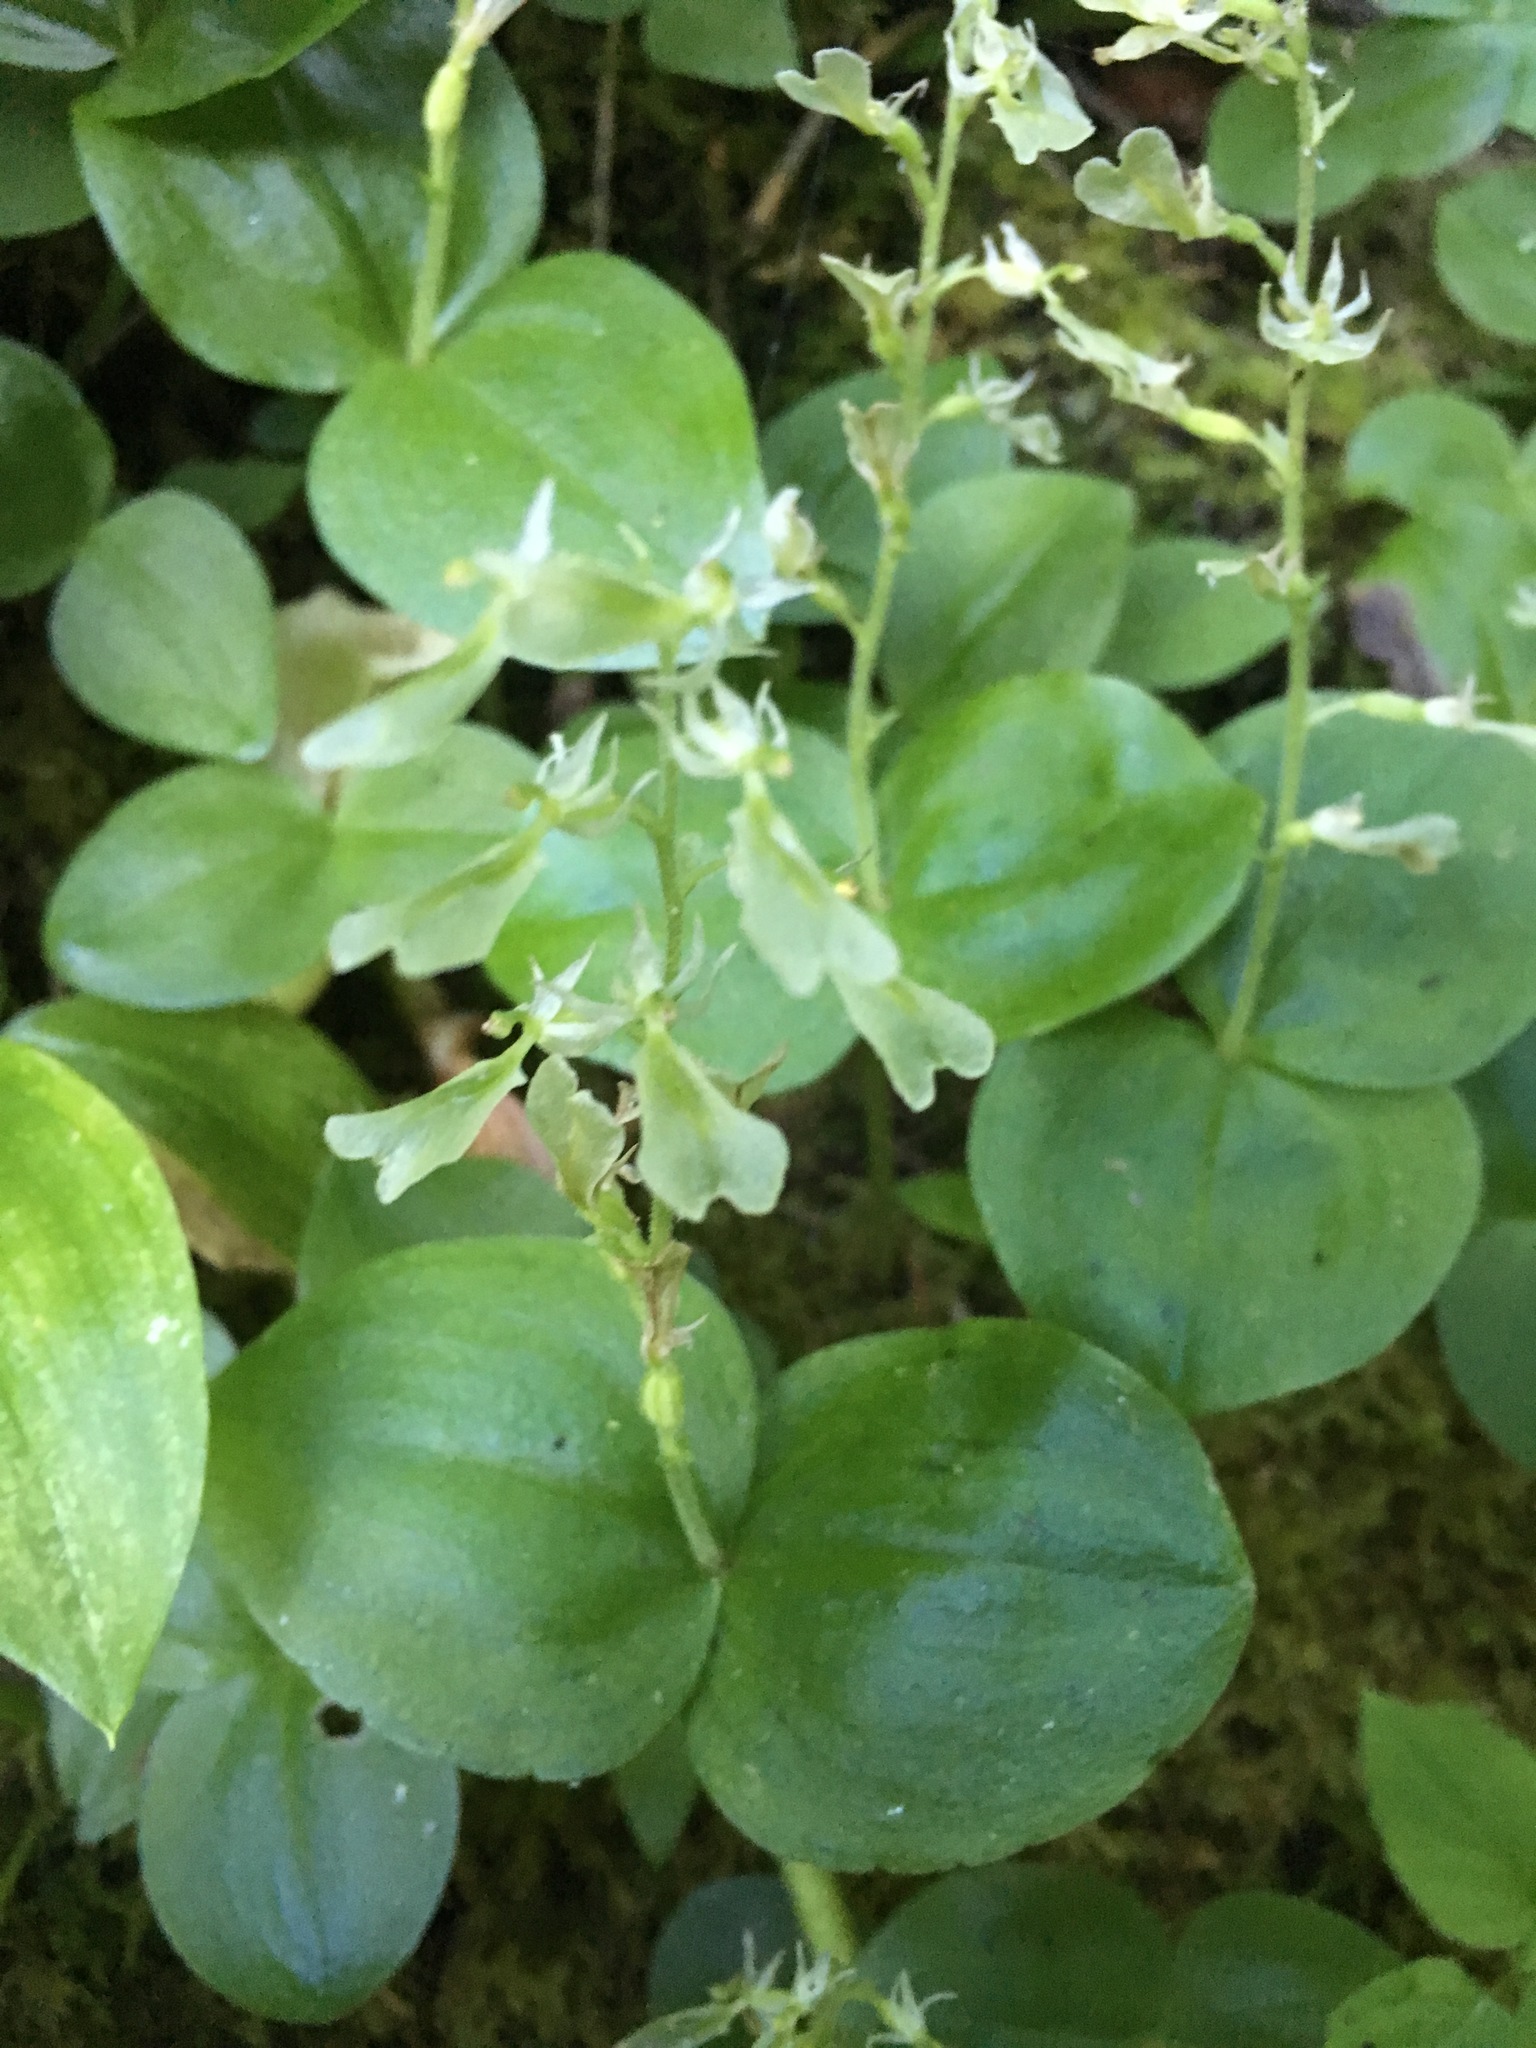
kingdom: Plantae
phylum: Tracheophyta
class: Liliopsida
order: Asparagales
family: Orchidaceae
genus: Neottia
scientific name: Neottia convallarioides
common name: Broadleaf twayblade
